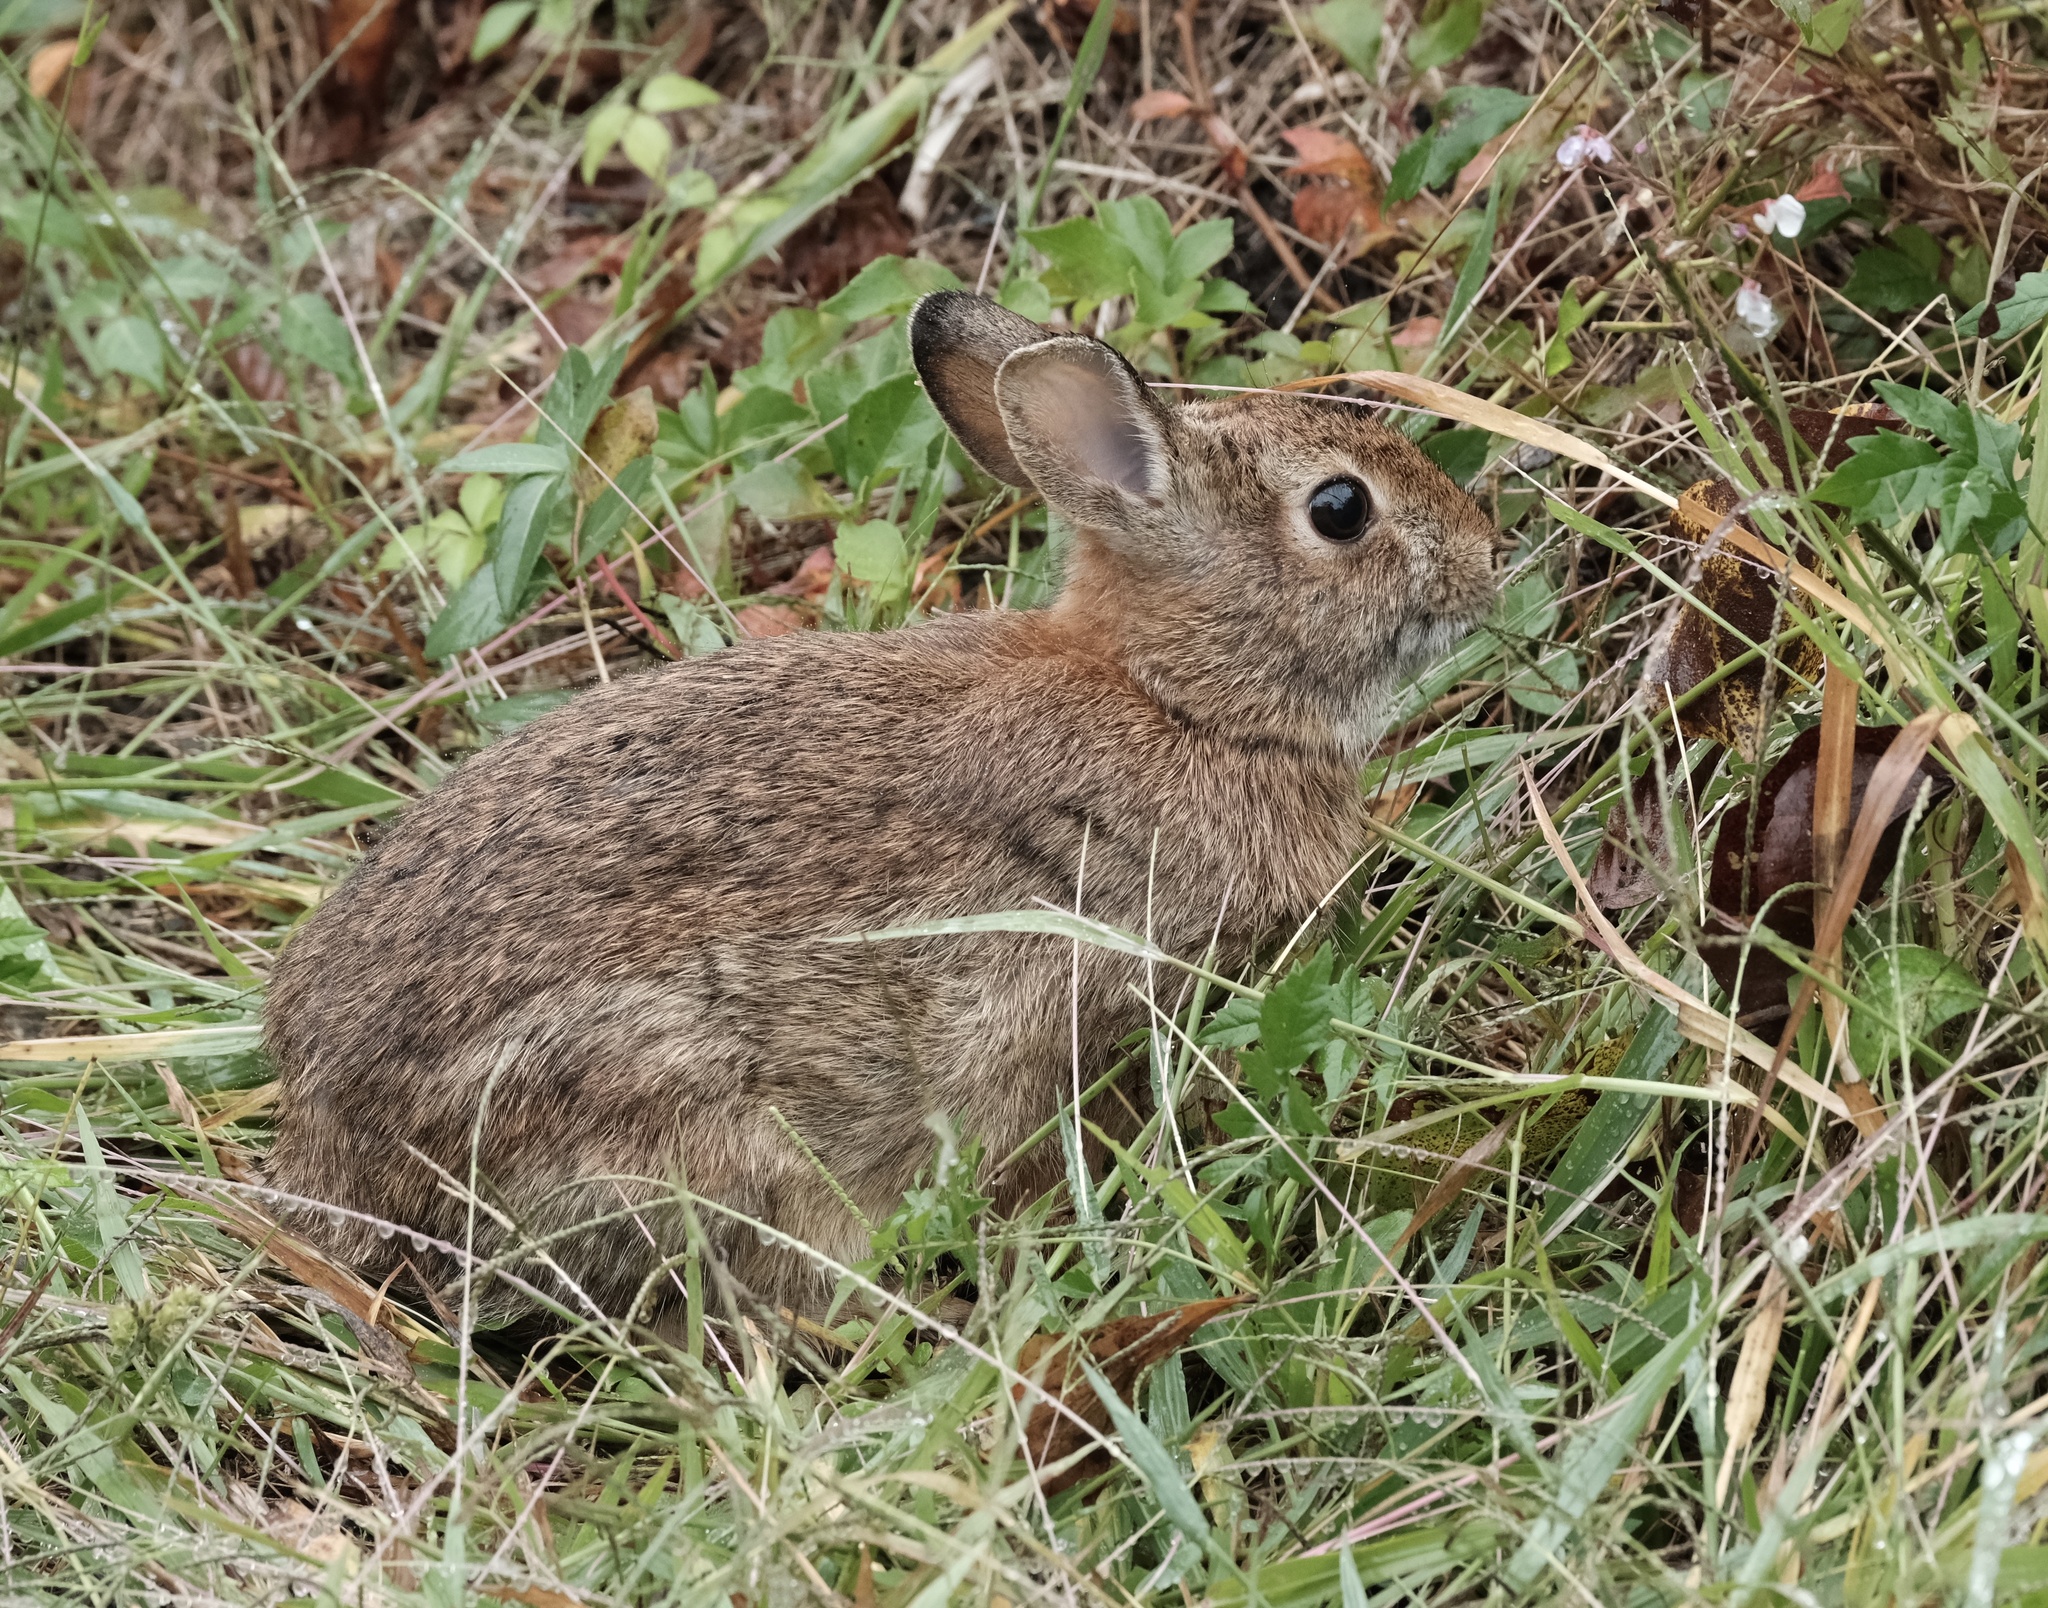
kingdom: Animalia
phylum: Chordata
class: Mammalia
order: Lagomorpha
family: Leporidae
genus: Sylvilagus
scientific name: Sylvilagus floridanus
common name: Eastern cottontail
